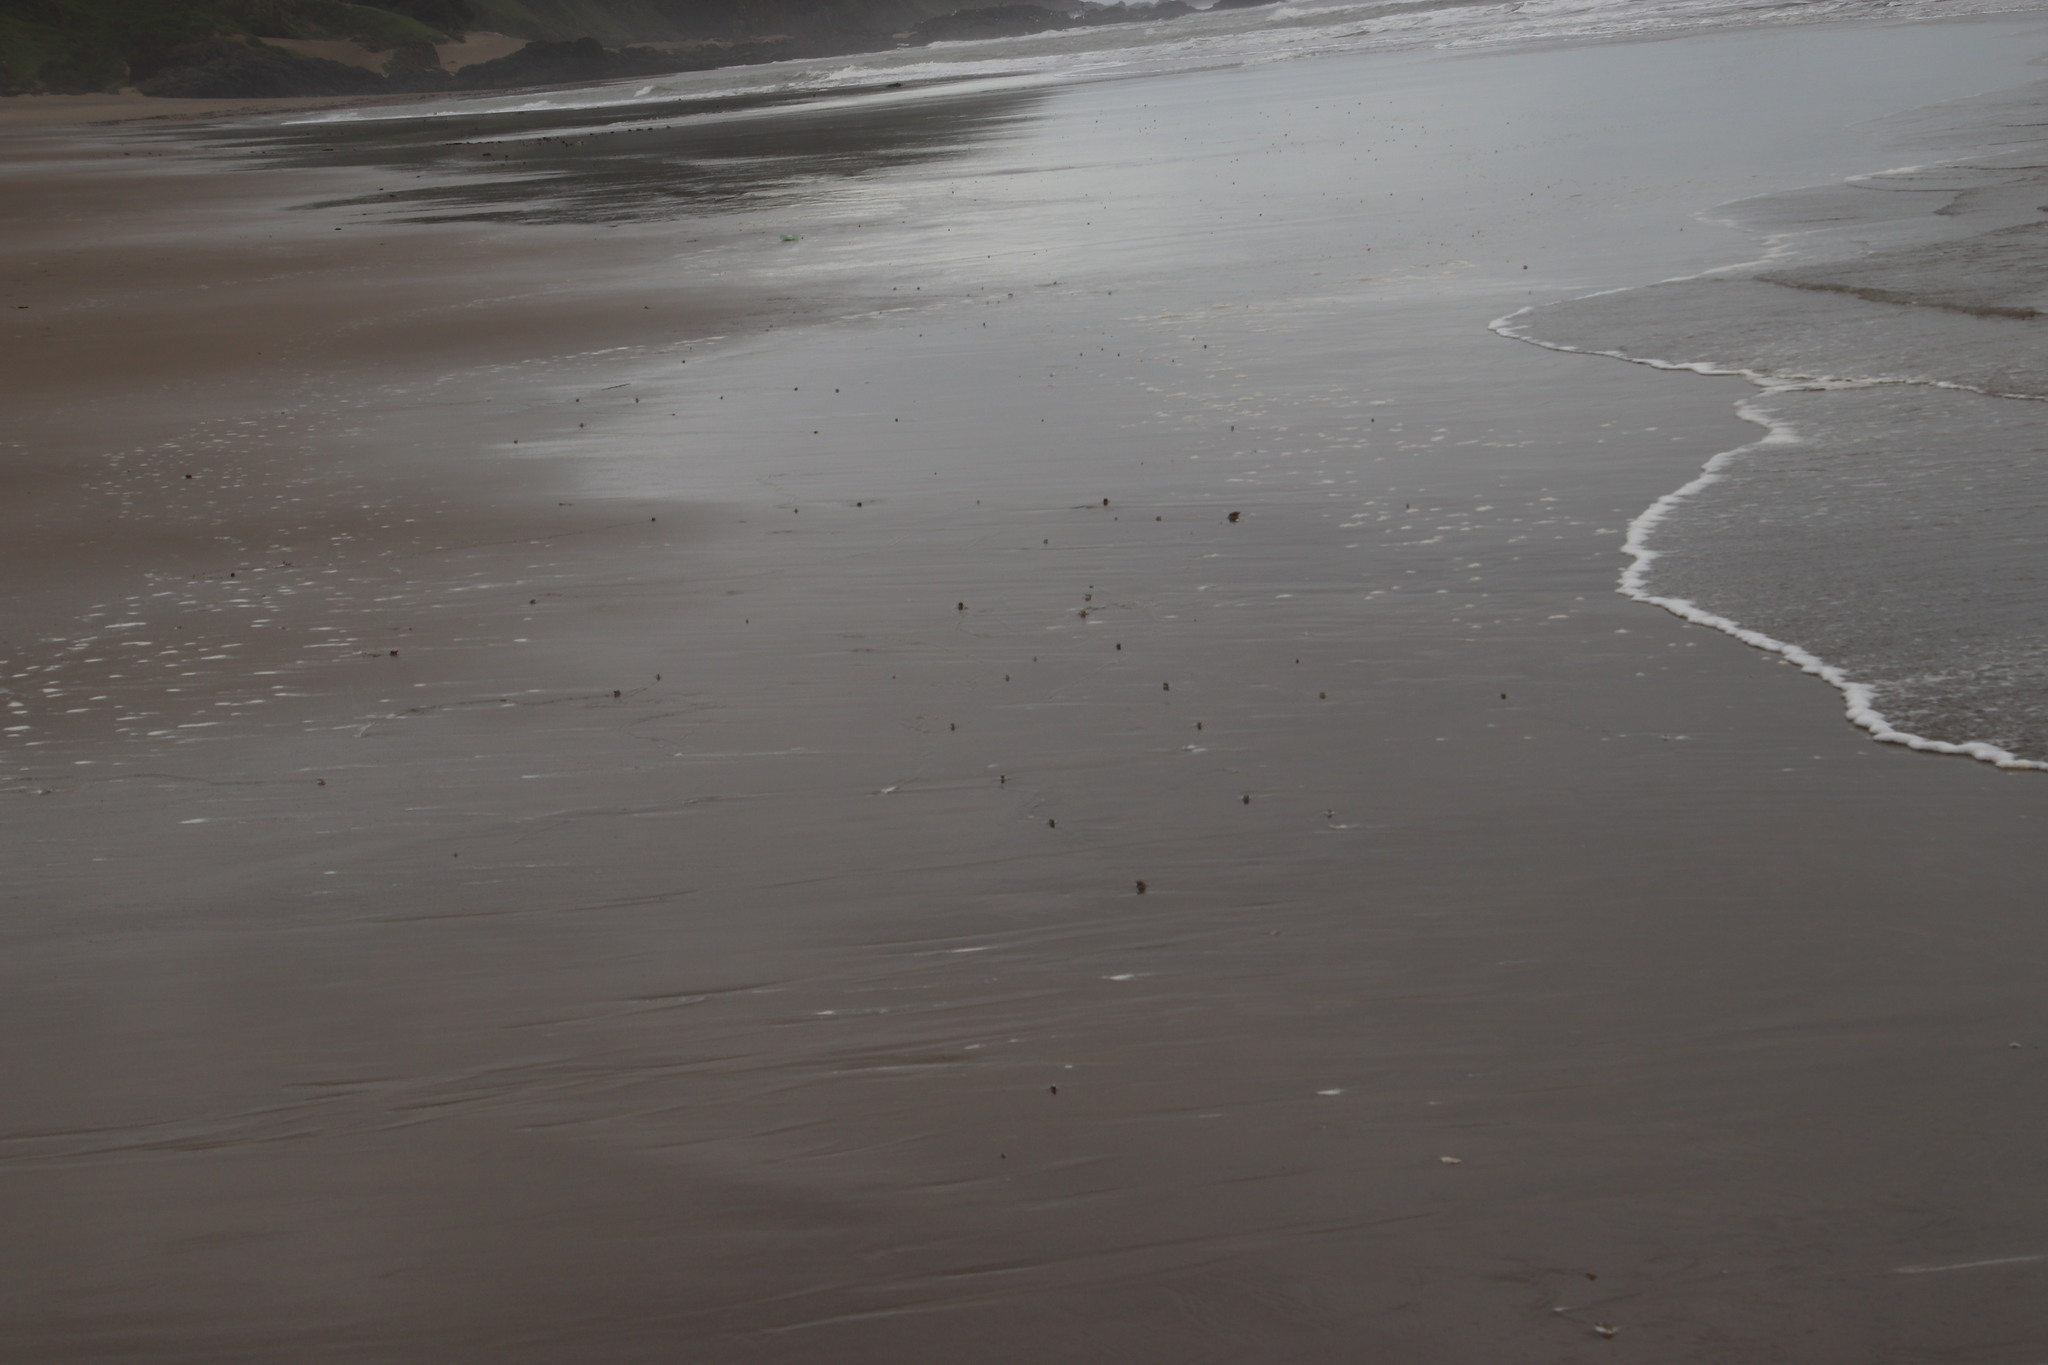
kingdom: Animalia
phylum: Mollusca
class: Gastropoda
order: Neogastropoda
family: Nassariidae
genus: Bullia
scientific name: Bullia rhodostoma
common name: Smooth plough shell
